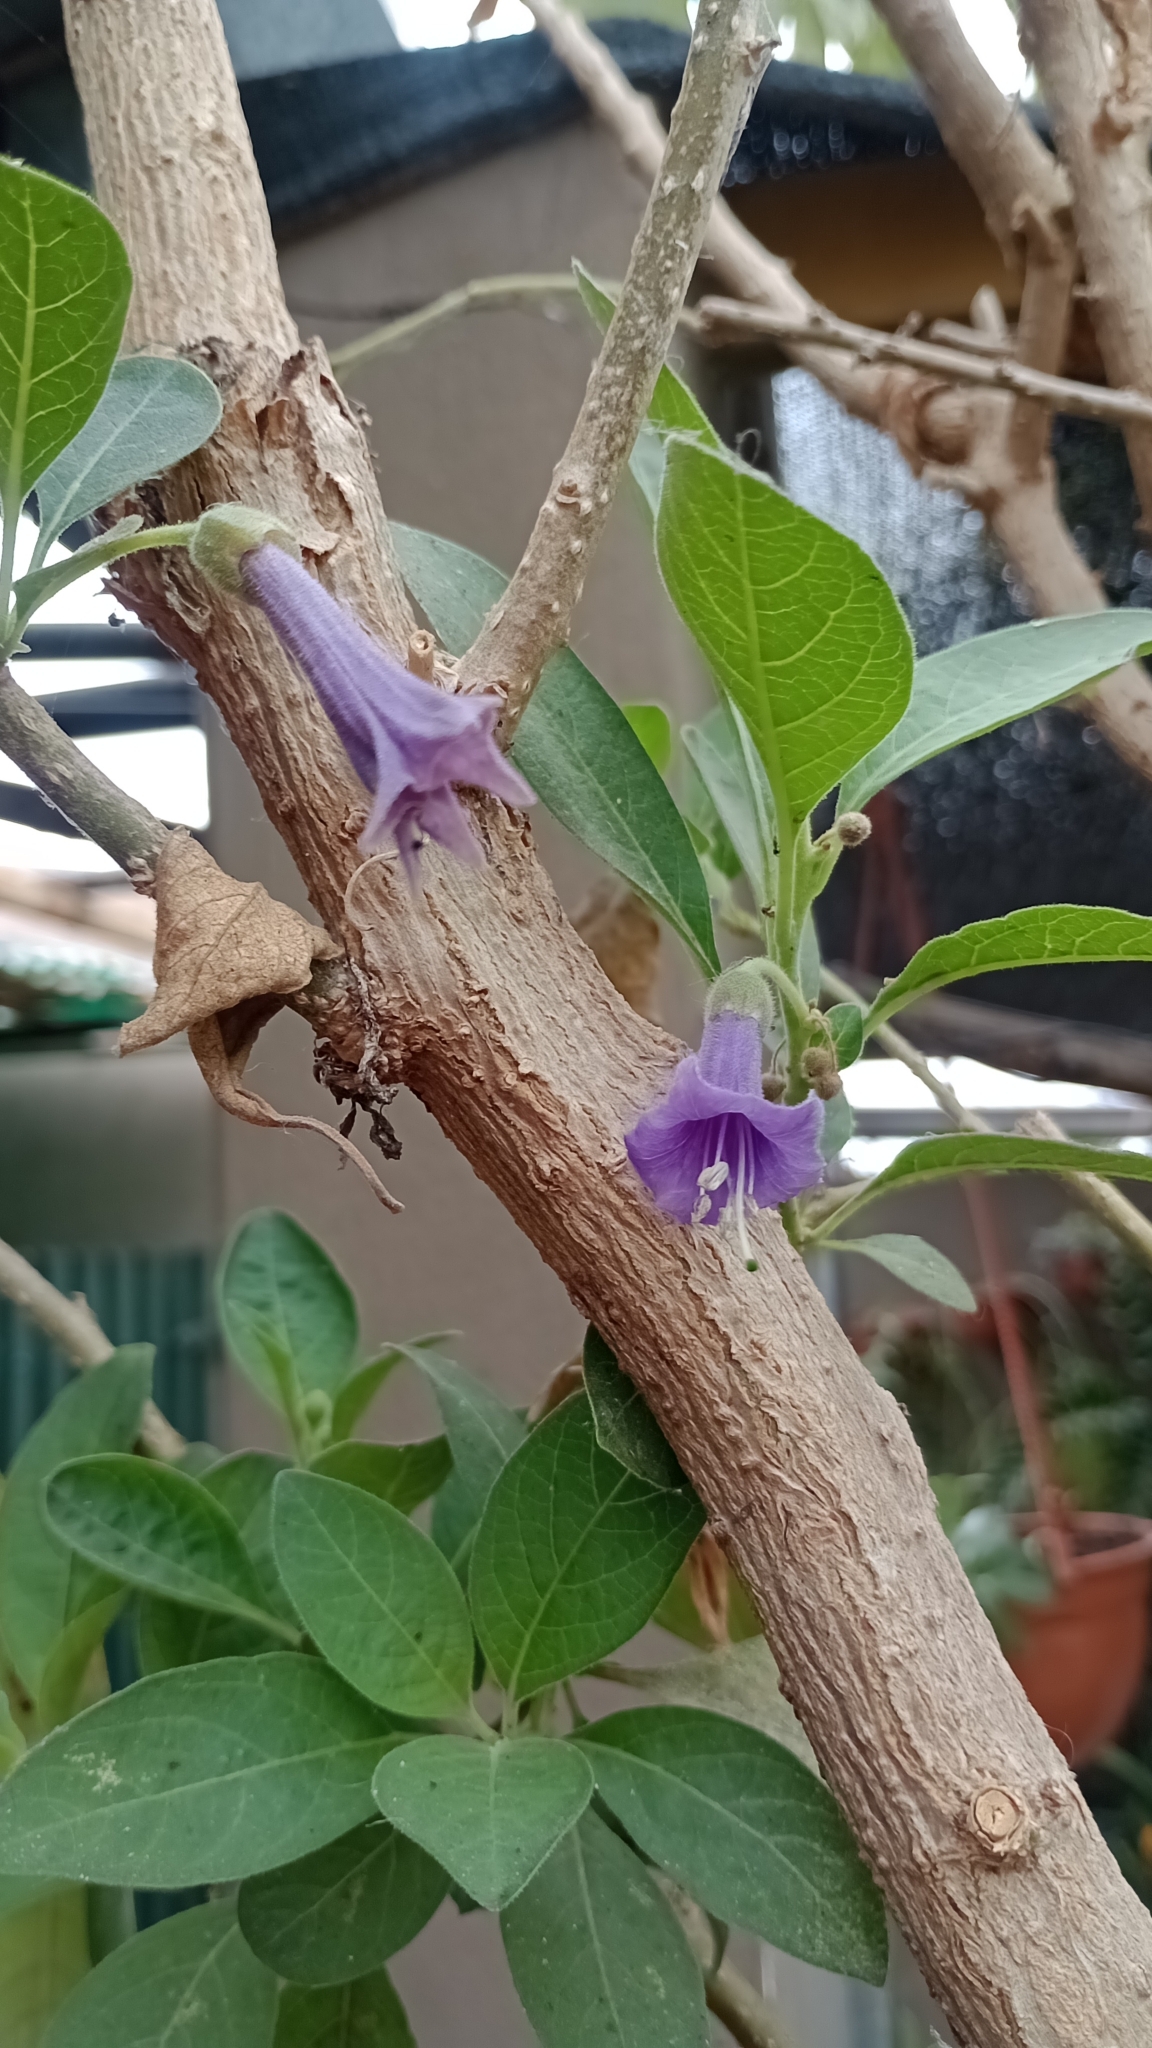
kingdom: Plantae
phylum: Tracheophyta
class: Magnoliopsida
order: Solanales
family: Solanaceae
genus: Eriolarynx
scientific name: Eriolarynx australis
